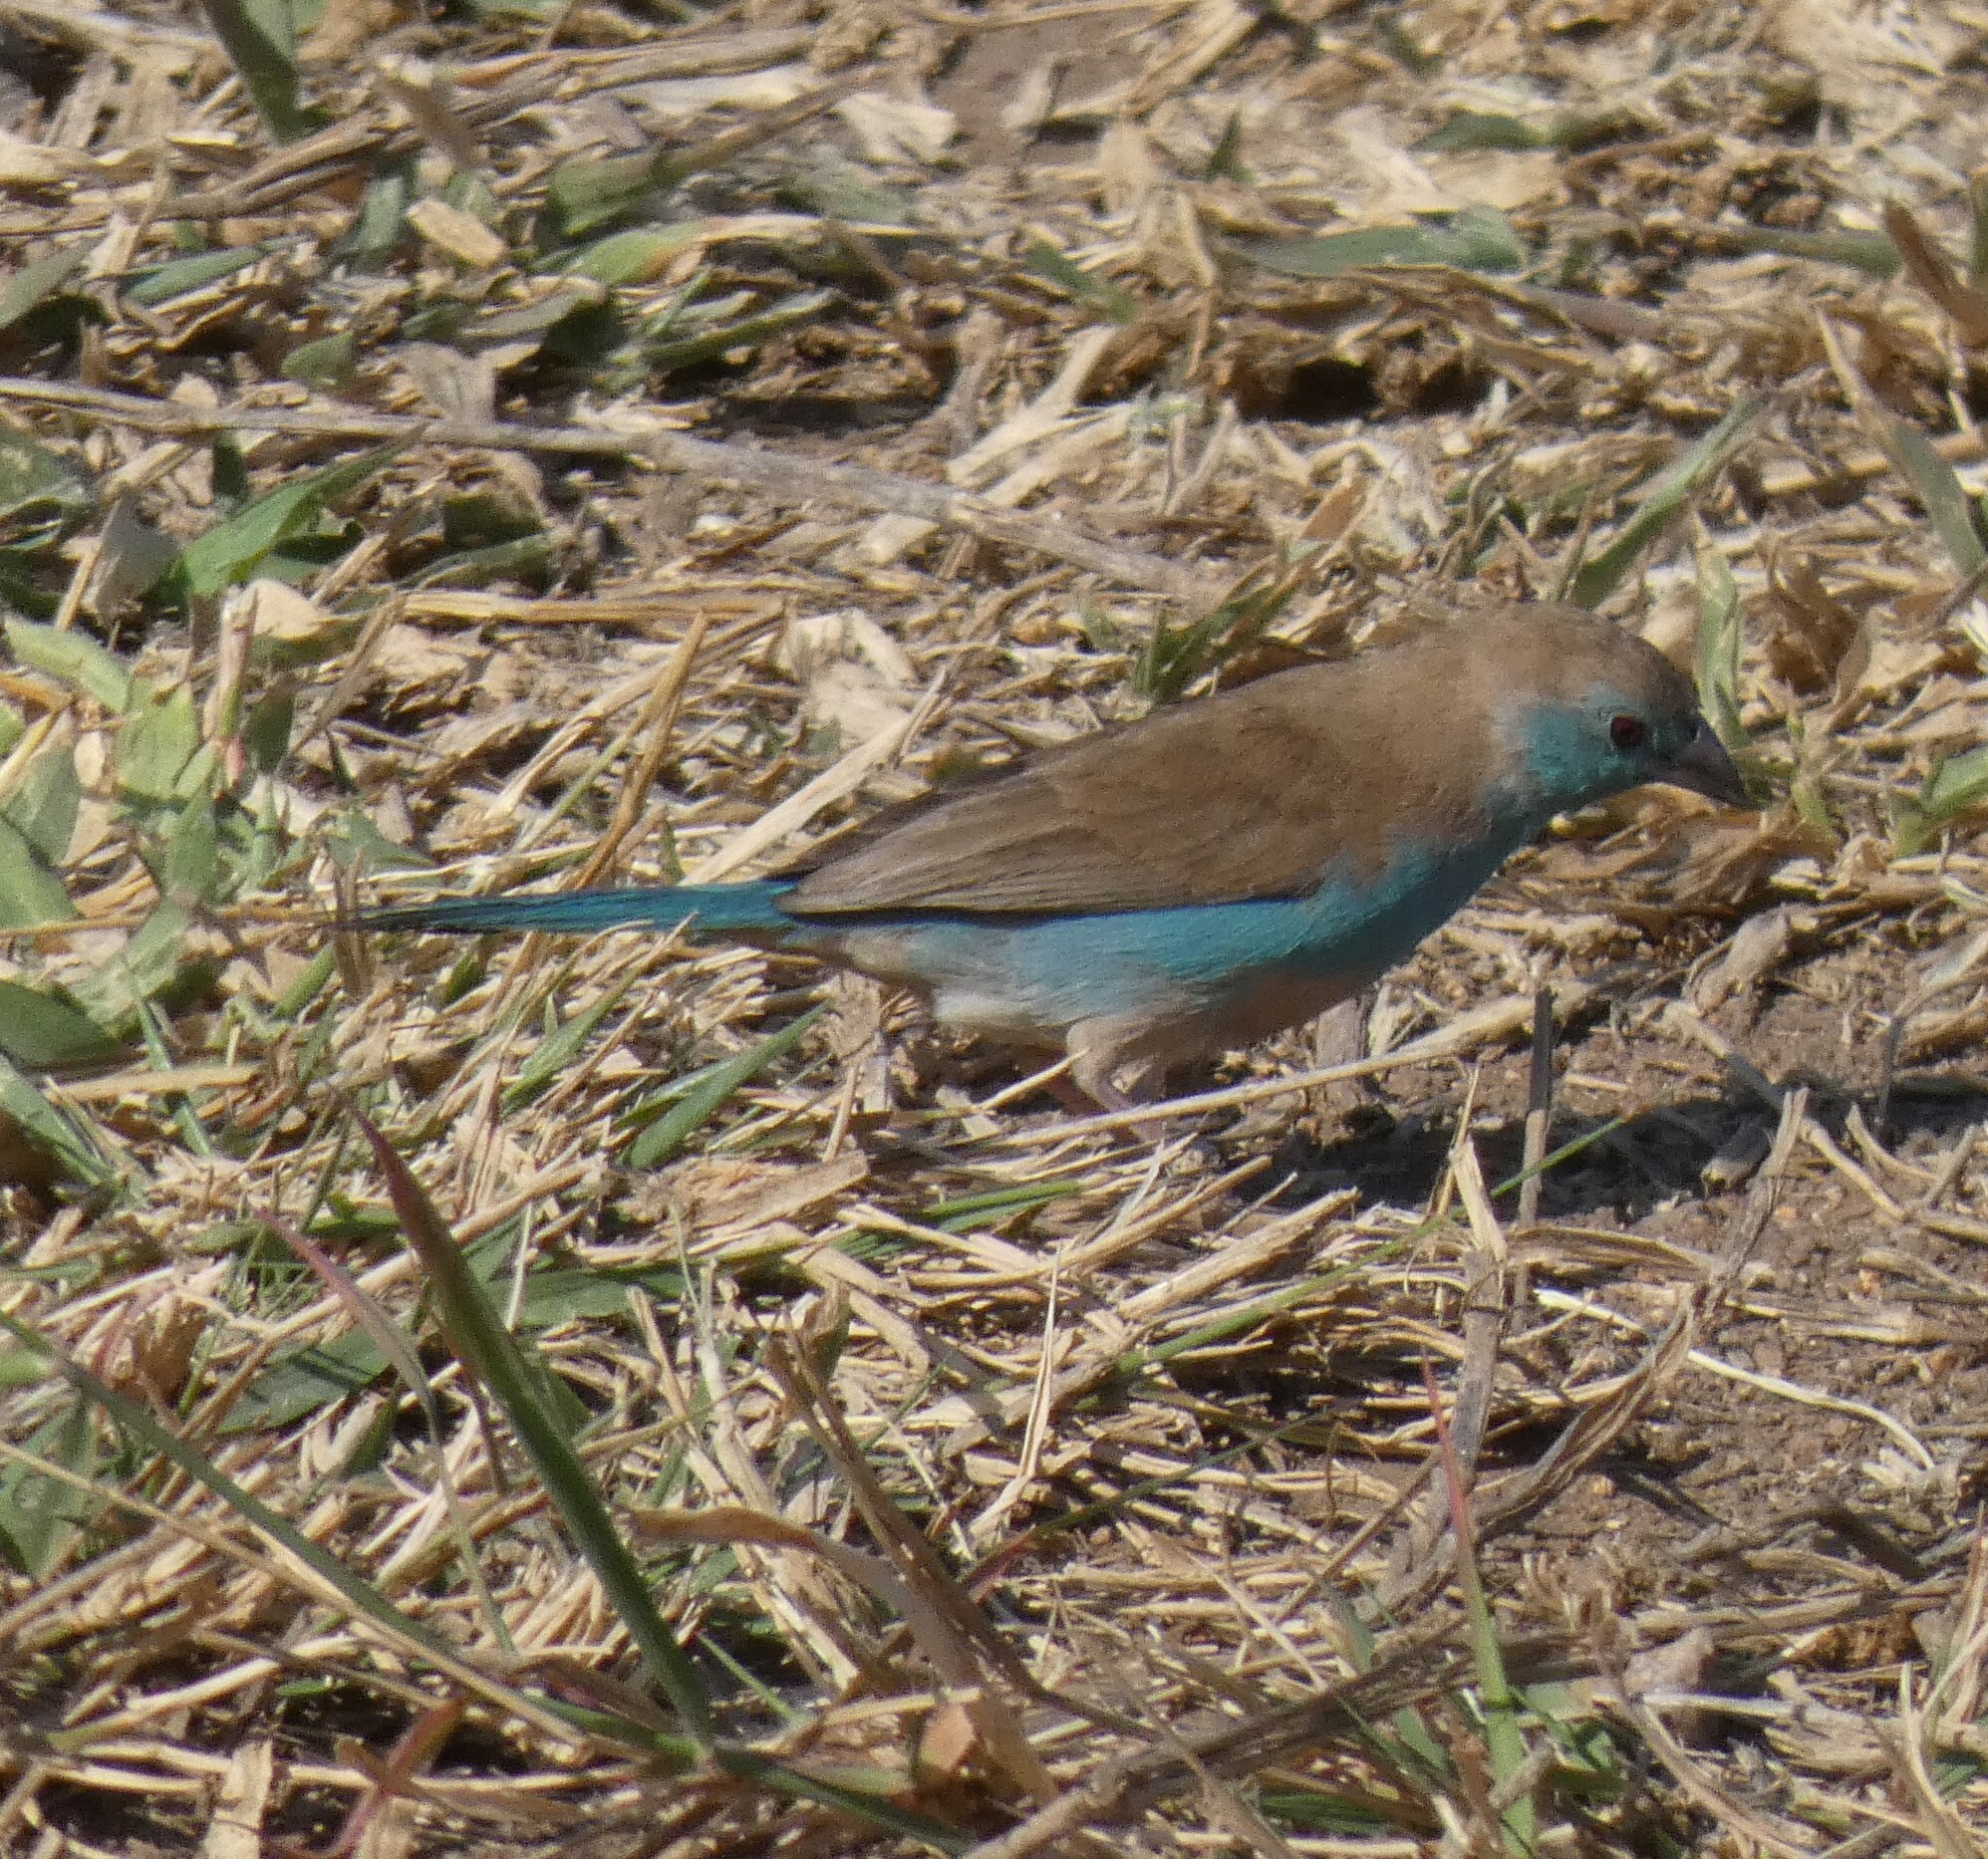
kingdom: Animalia
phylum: Chordata
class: Aves
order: Passeriformes
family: Estrildidae
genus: Uraeginthus
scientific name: Uraeginthus angolensis
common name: Blue waxbill
